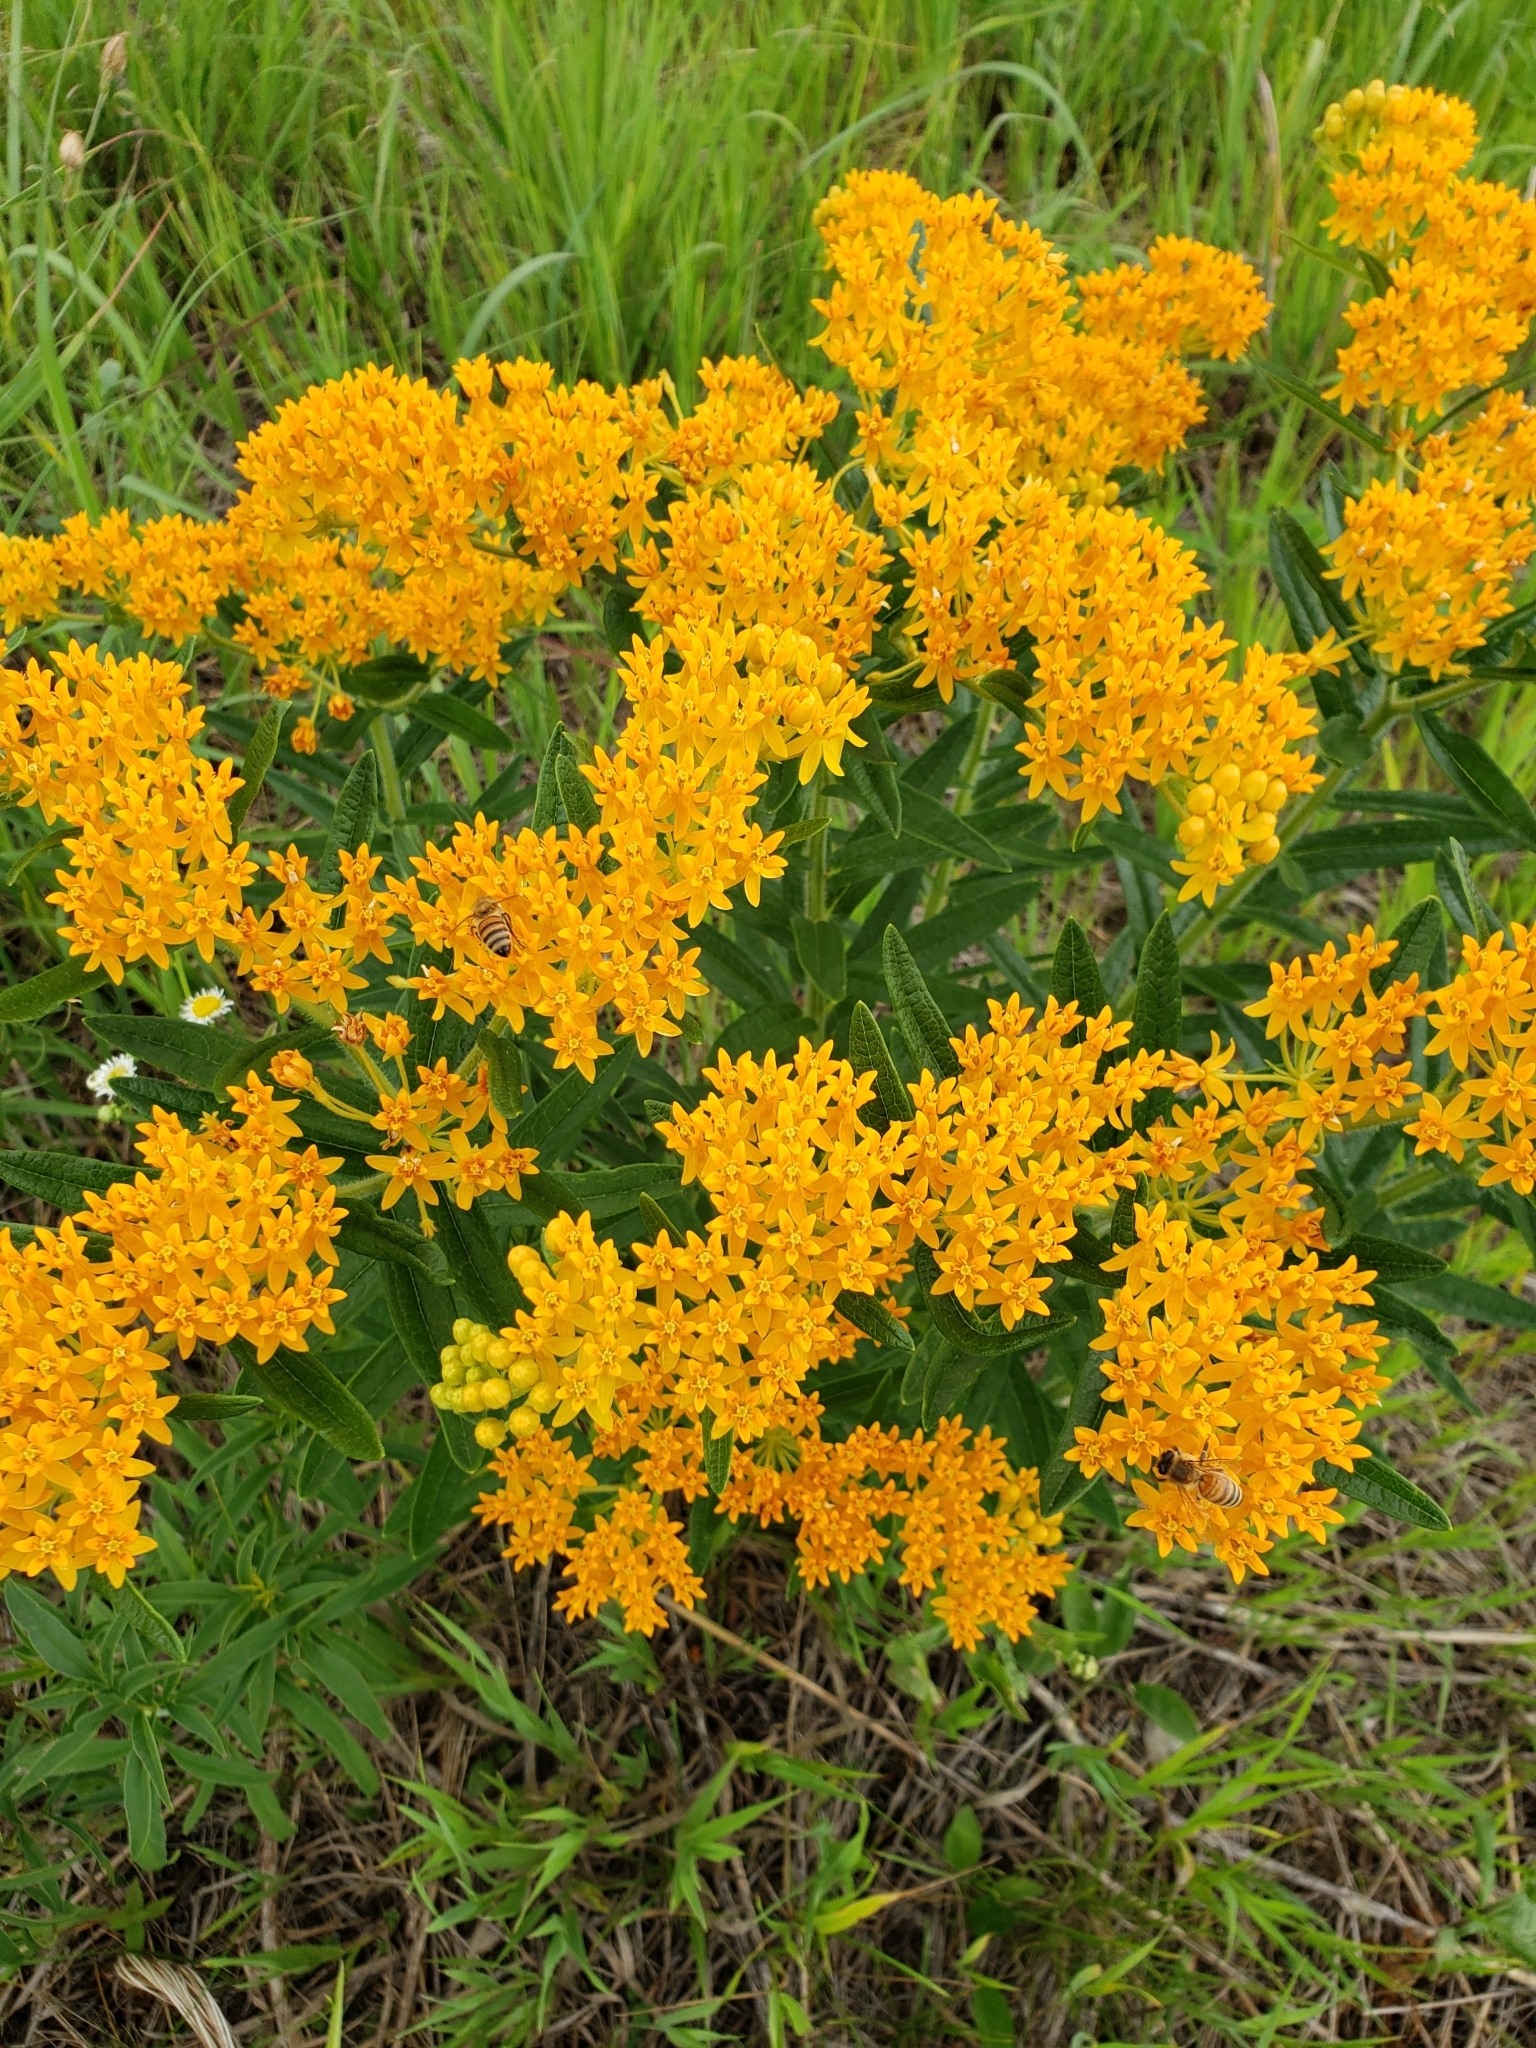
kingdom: Plantae
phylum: Tracheophyta
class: Magnoliopsida
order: Gentianales
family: Apocynaceae
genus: Asclepias
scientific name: Asclepias tuberosa
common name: Butterfly milkweed
